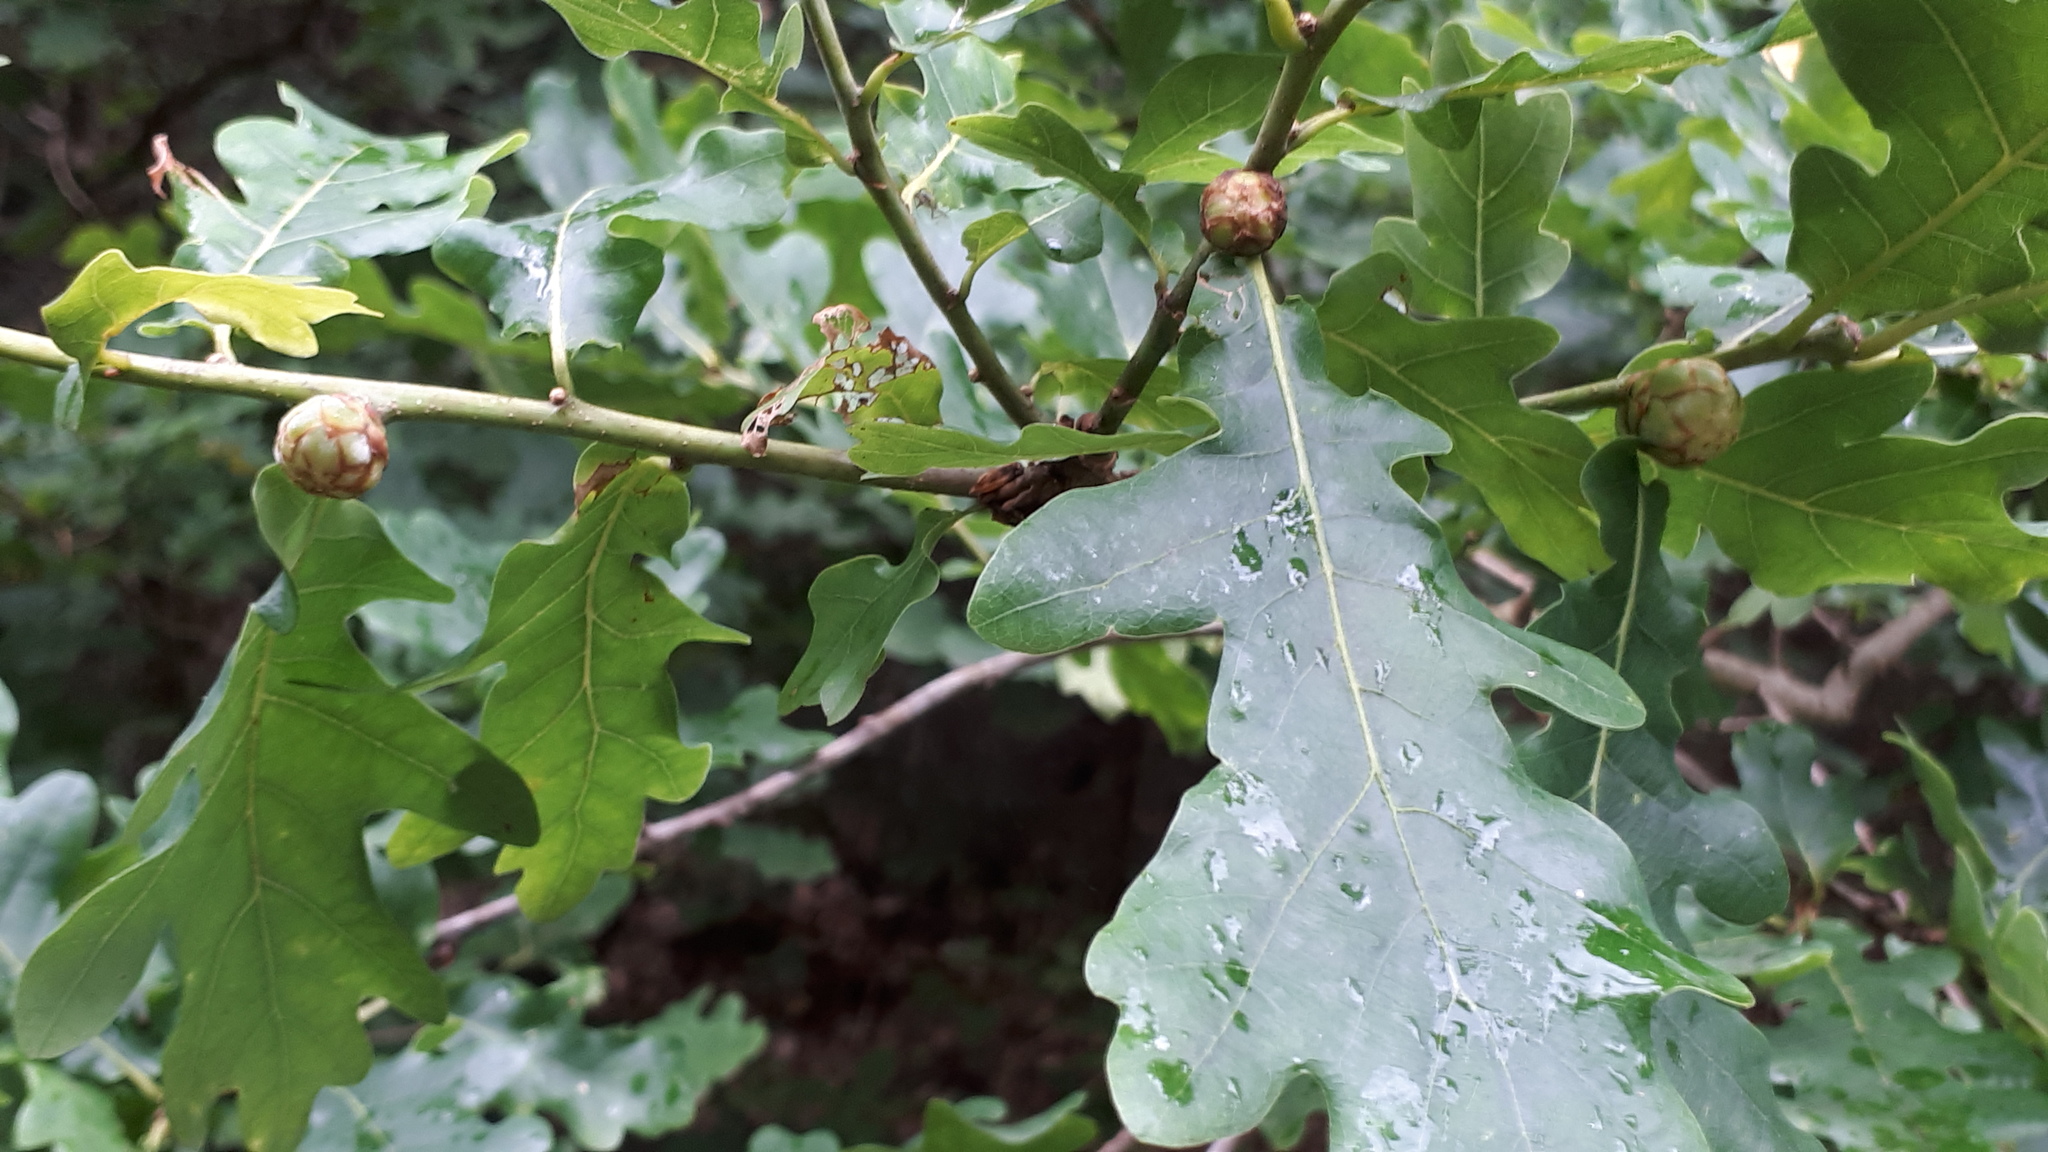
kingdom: Animalia
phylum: Arthropoda
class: Insecta
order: Hymenoptera
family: Cynipidae
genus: Andricus
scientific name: Andricus foecundatrix
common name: Artichoke gall
